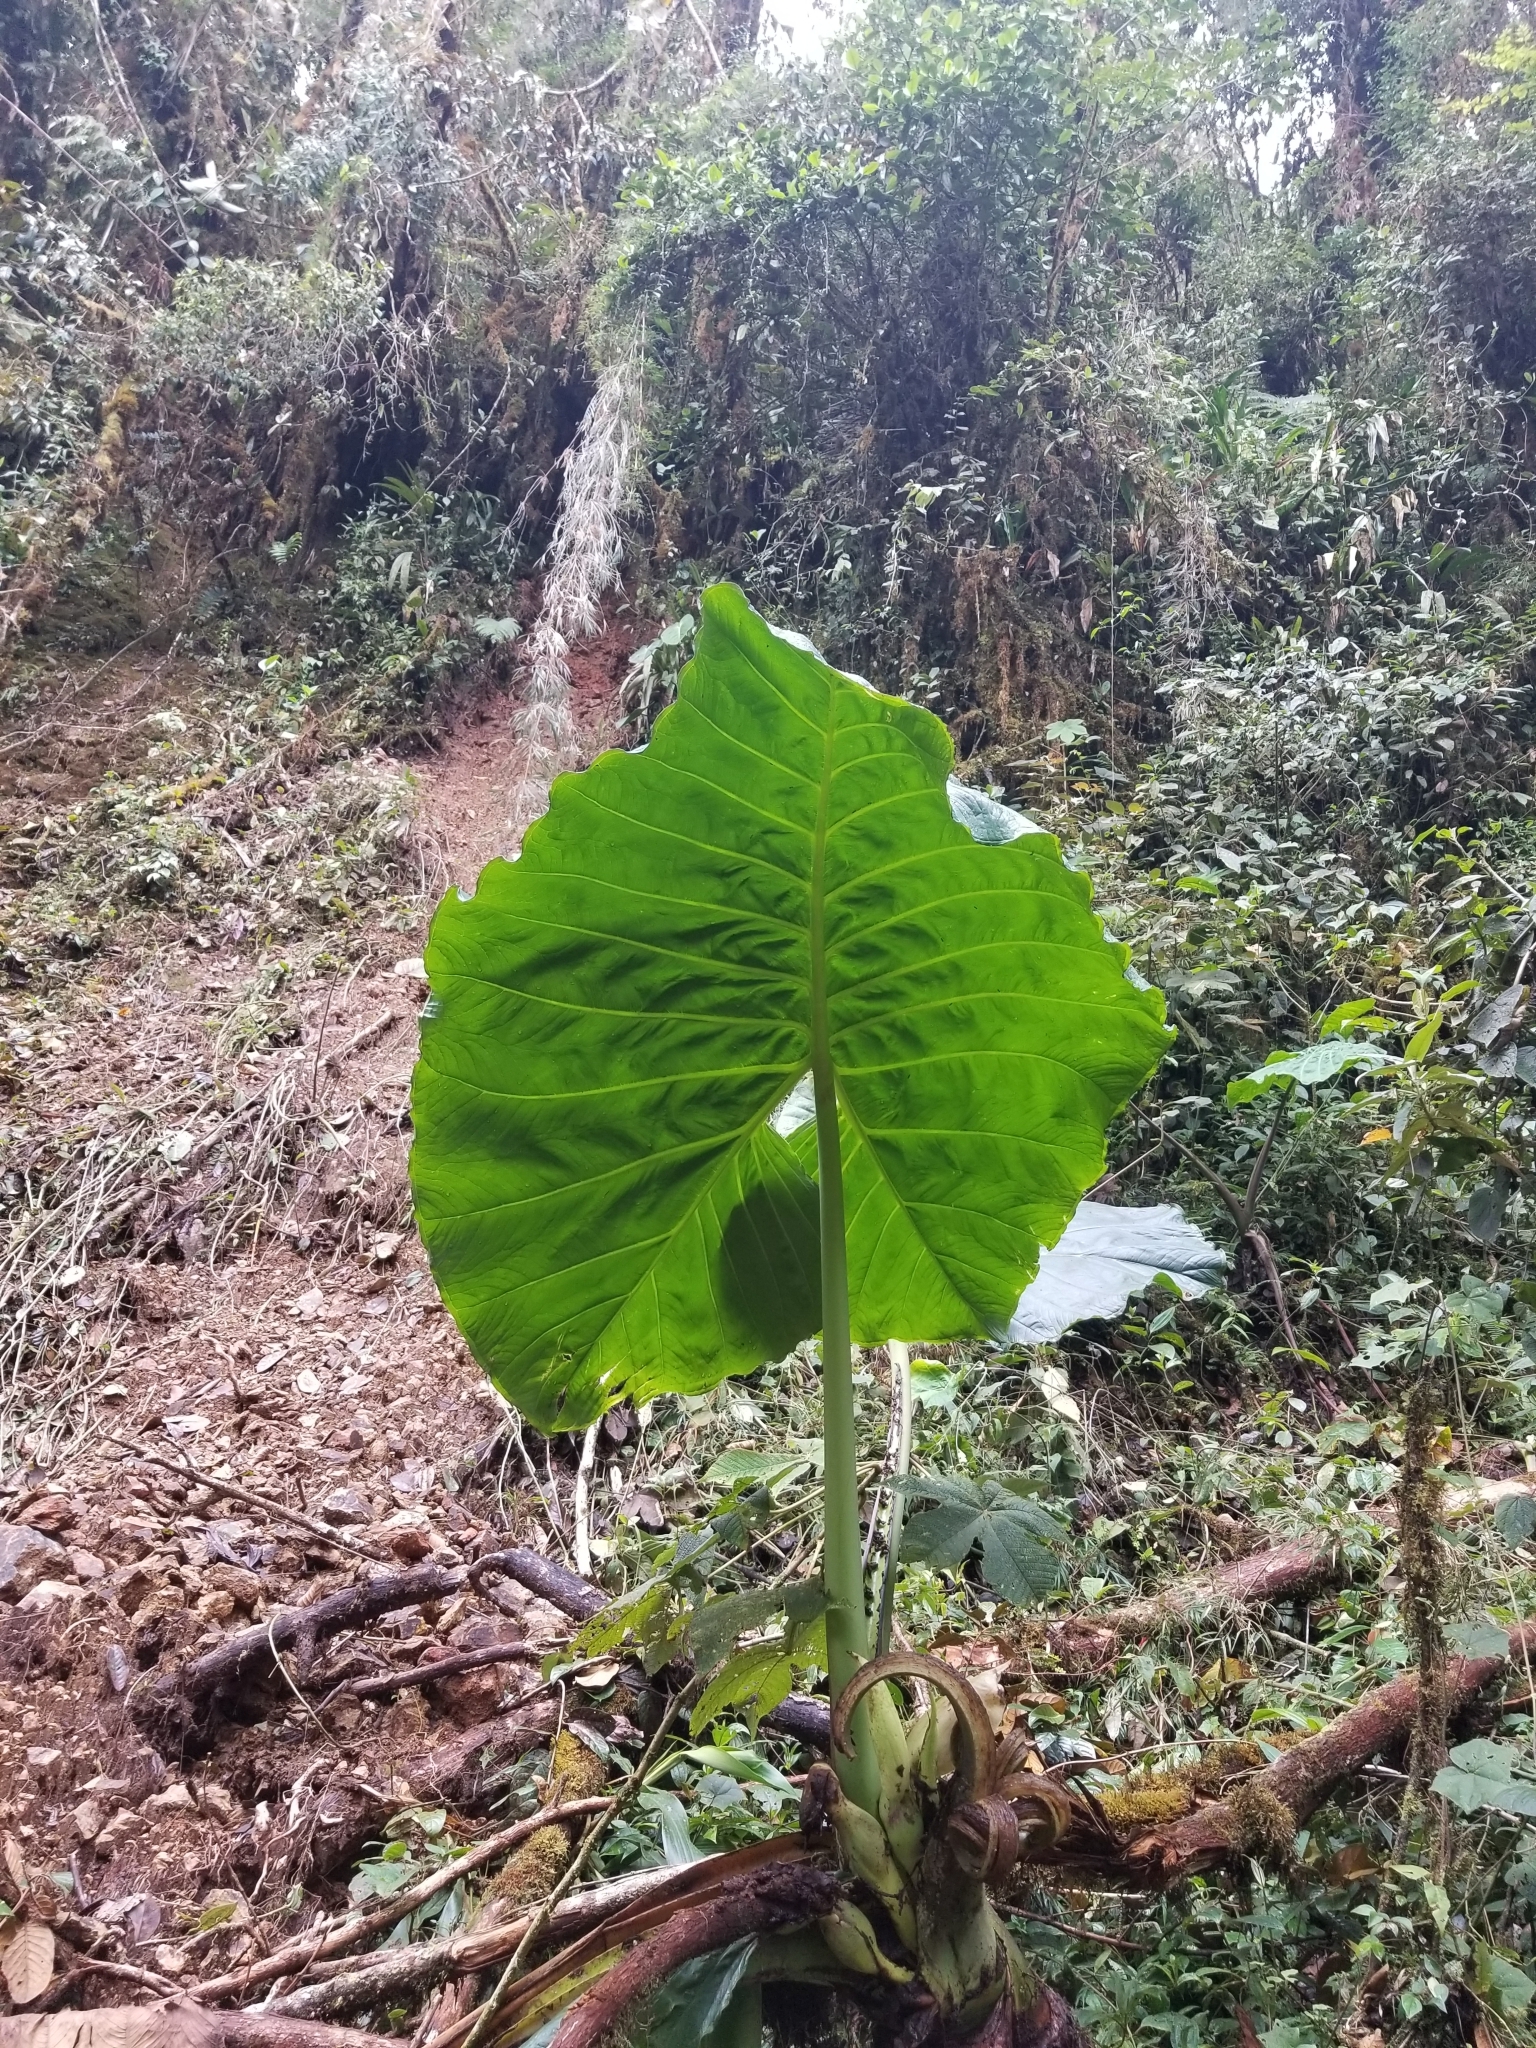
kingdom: Plantae
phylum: Tracheophyta
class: Liliopsida
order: Alismatales
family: Araceae
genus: Alocasia
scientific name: Alocasia macrorrhizos
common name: Giant taro
